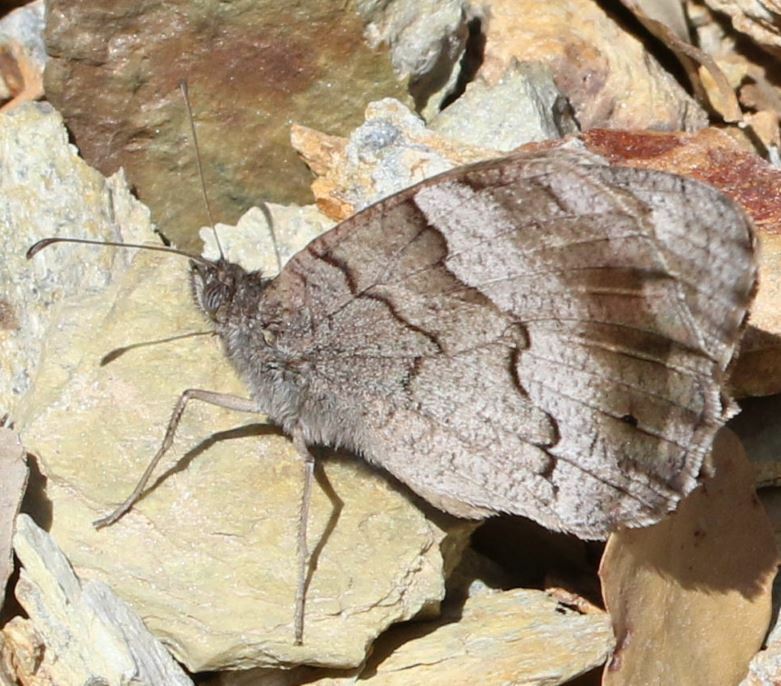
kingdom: Animalia
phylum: Arthropoda
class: Insecta
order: Lepidoptera
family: Nymphalidae
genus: Hipparchia
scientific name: Hipparchia statilinus
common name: Tree grayling
